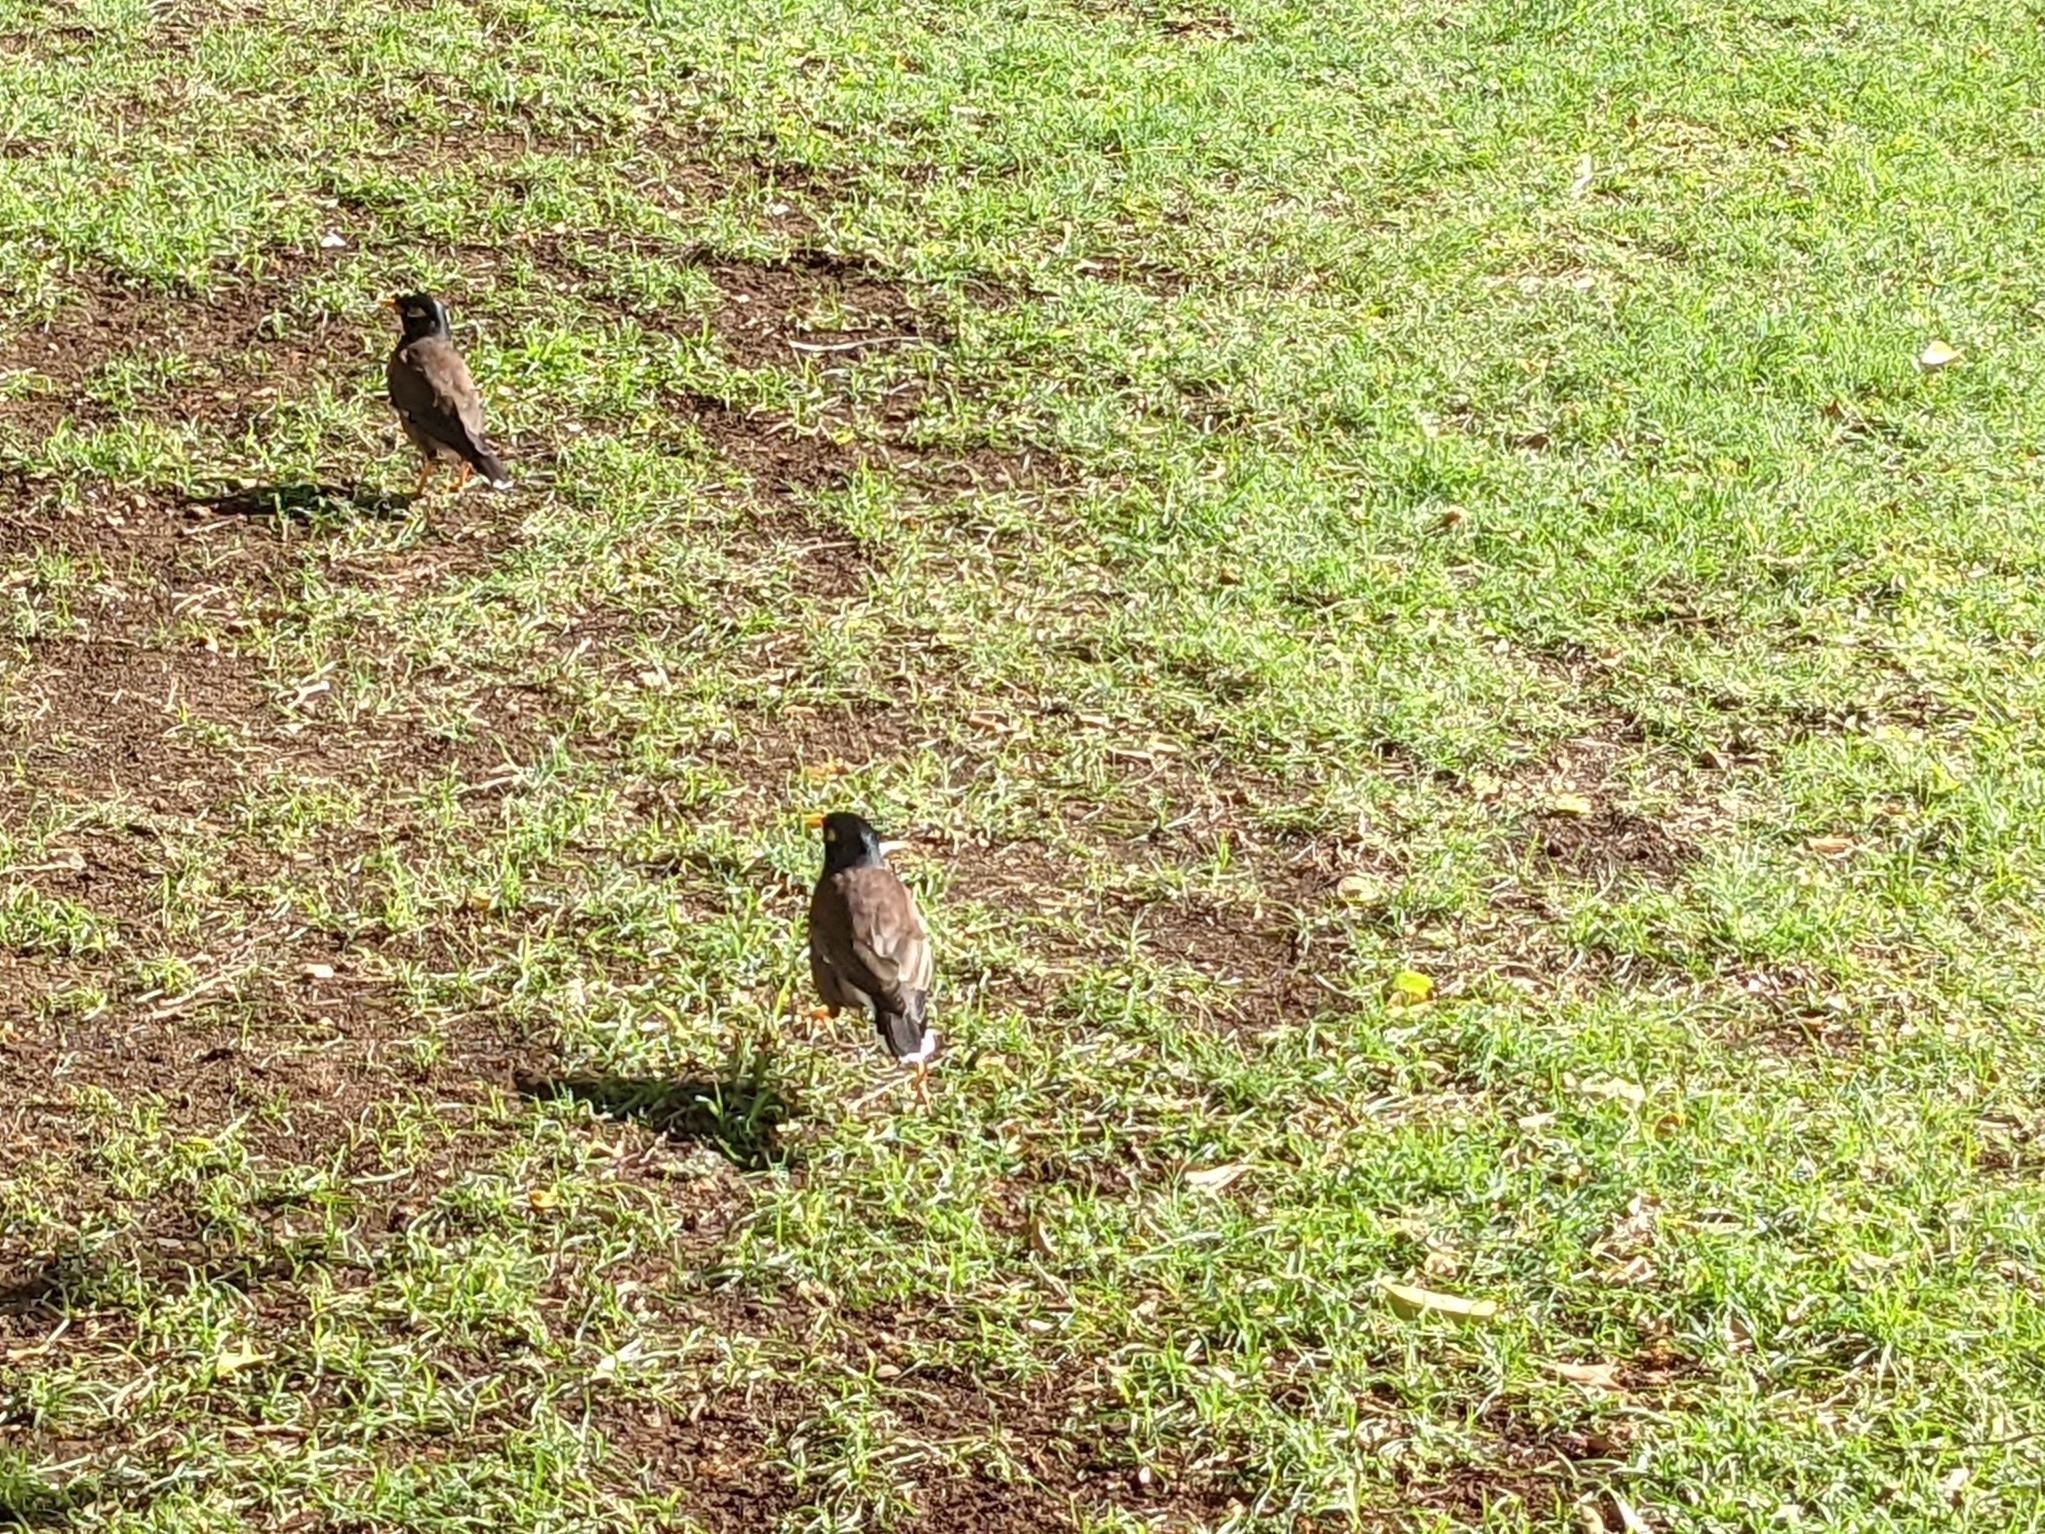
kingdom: Animalia
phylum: Chordata
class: Aves
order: Passeriformes
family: Sturnidae
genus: Acridotheres
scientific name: Acridotheres tristis
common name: Common myna
